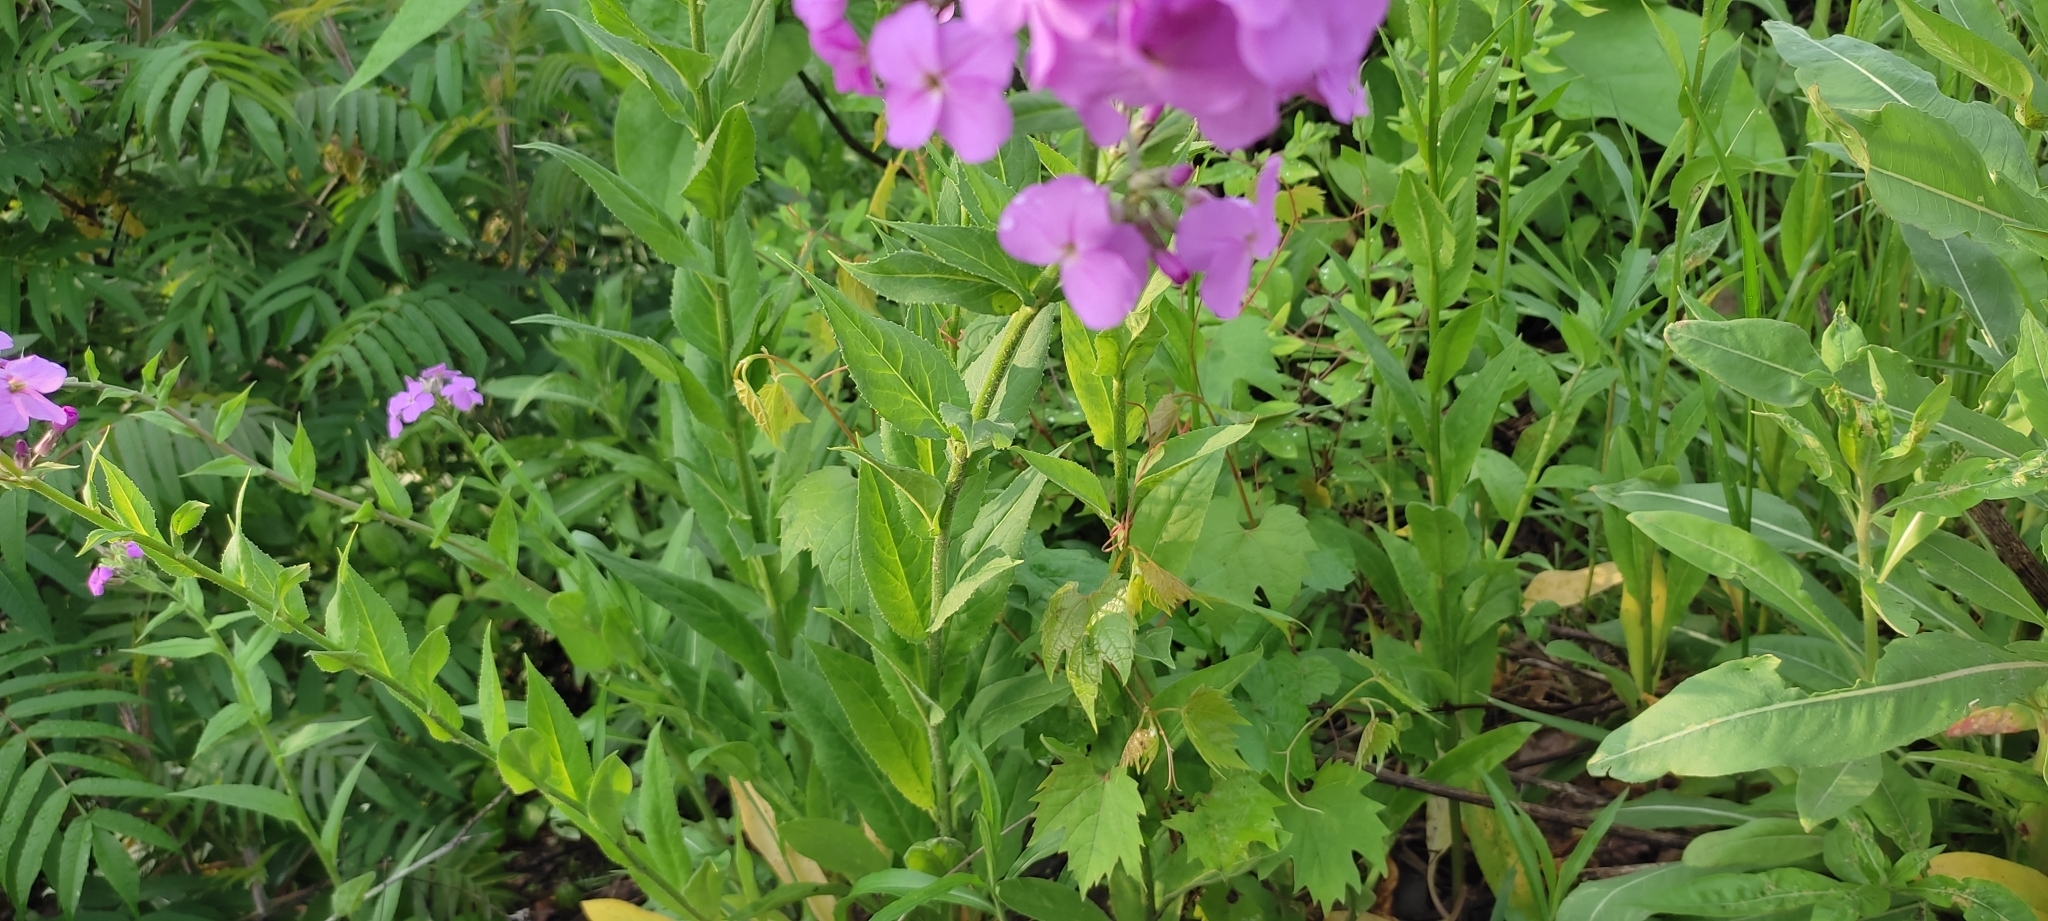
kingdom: Plantae
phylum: Tracheophyta
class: Magnoliopsida
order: Brassicales
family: Brassicaceae
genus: Hesperis
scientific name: Hesperis matronalis
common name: Dame's-violet
